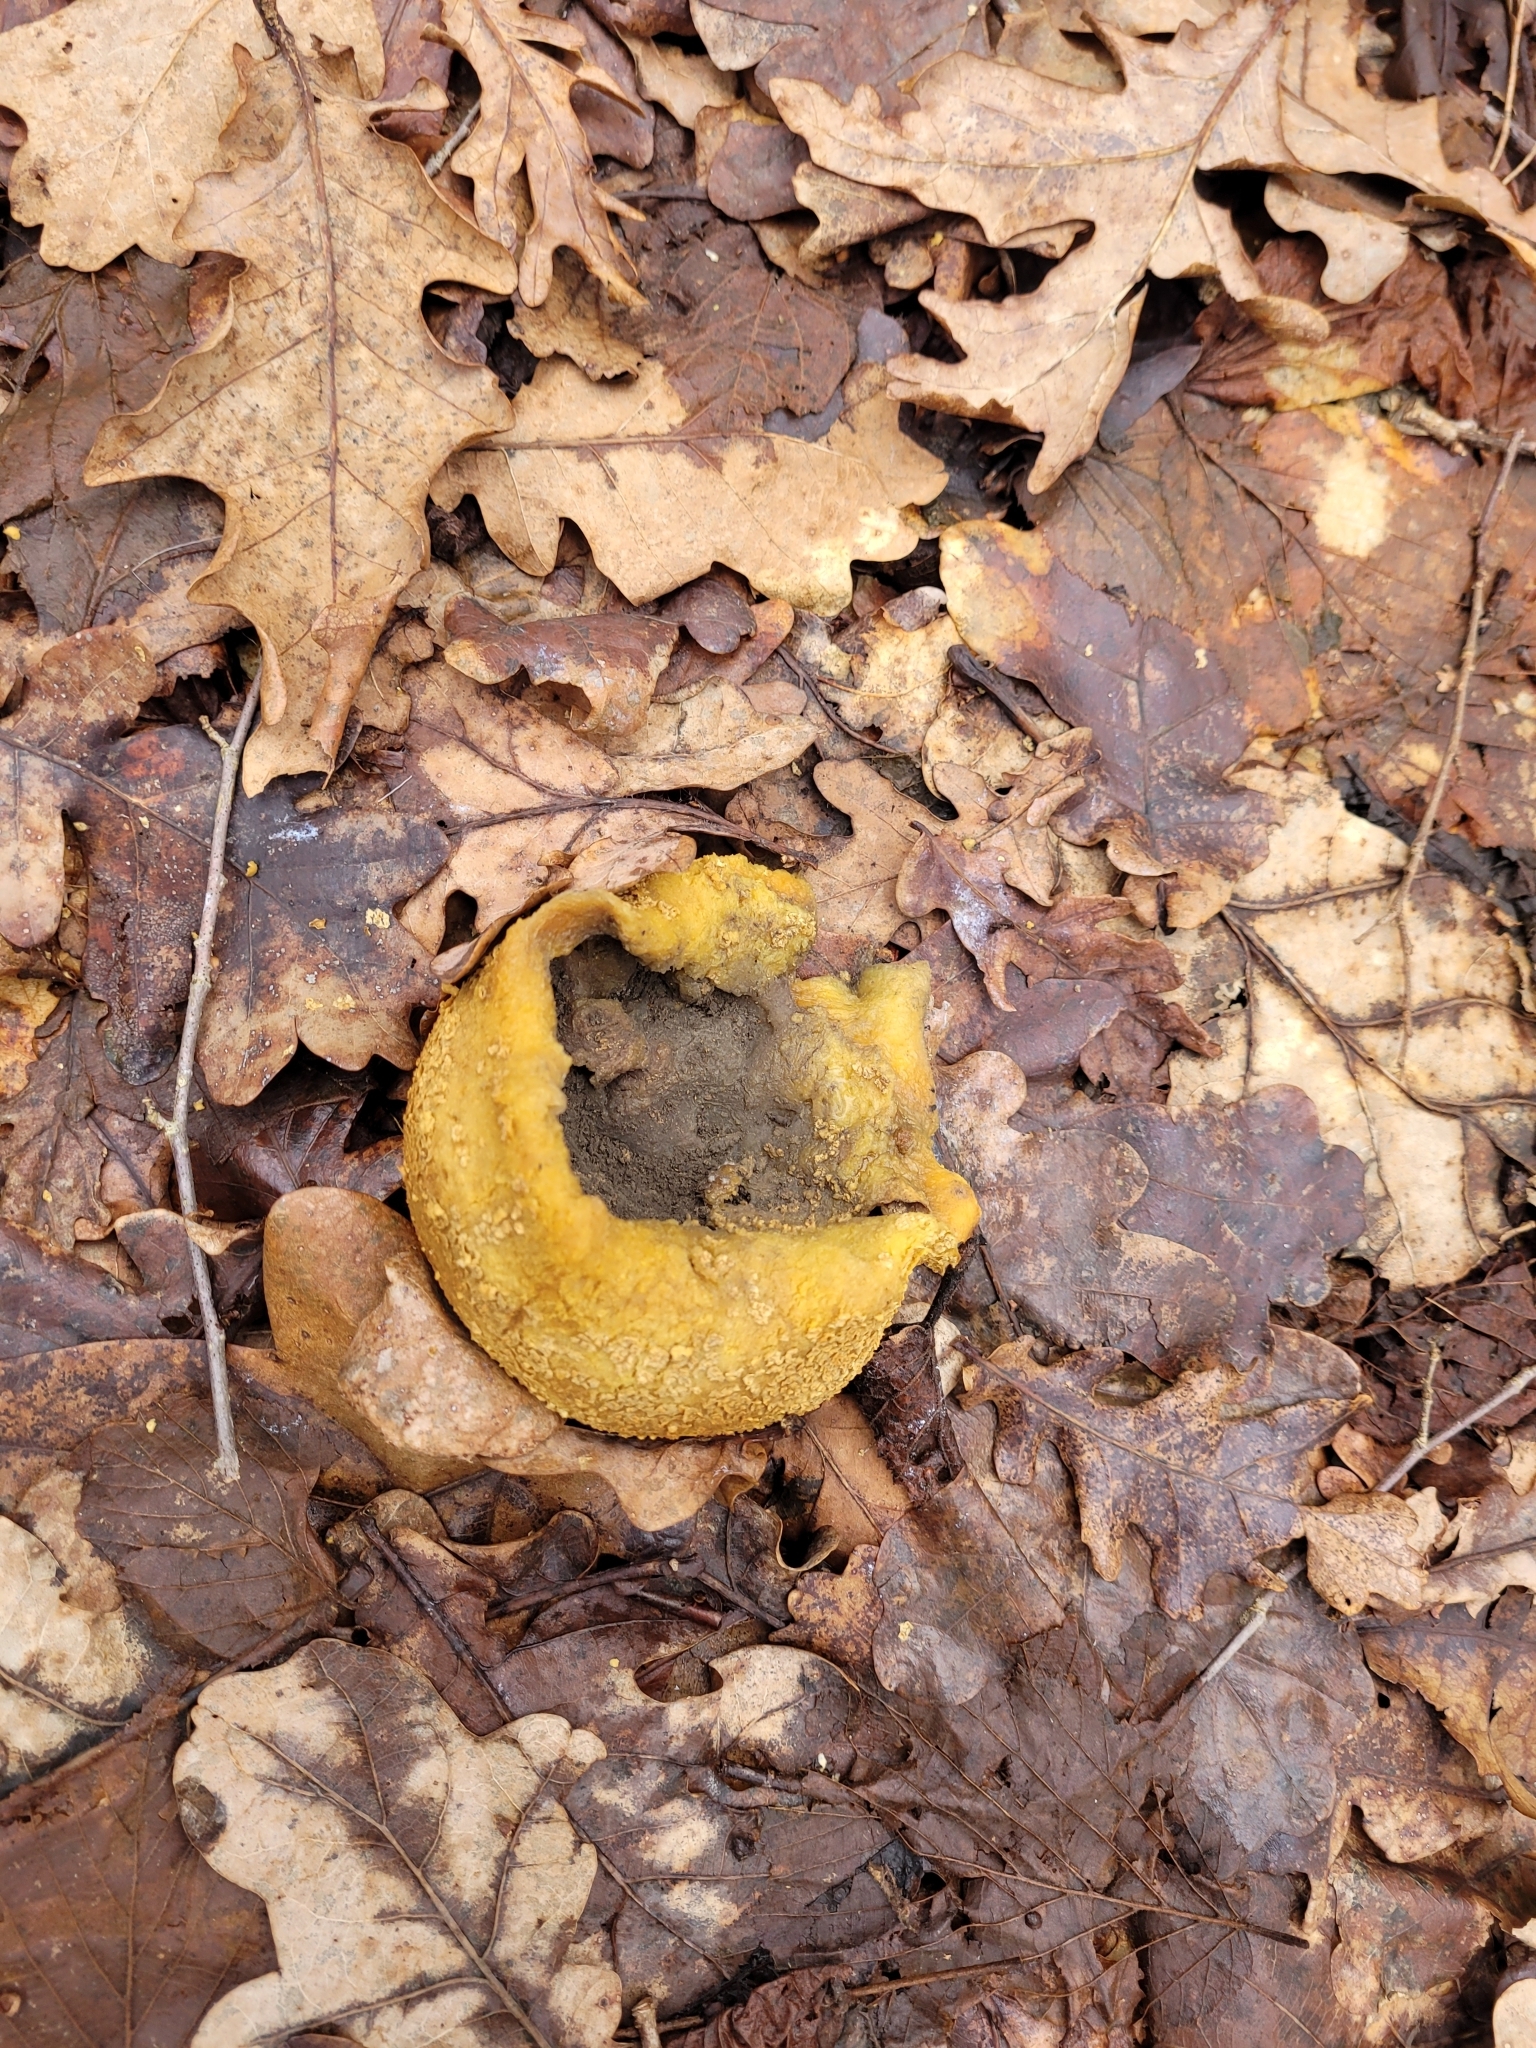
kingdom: Fungi
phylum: Basidiomycota
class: Agaricomycetes
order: Boletales
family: Sclerodermataceae
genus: Scleroderma
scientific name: Scleroderma citrinum
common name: Common earthball
